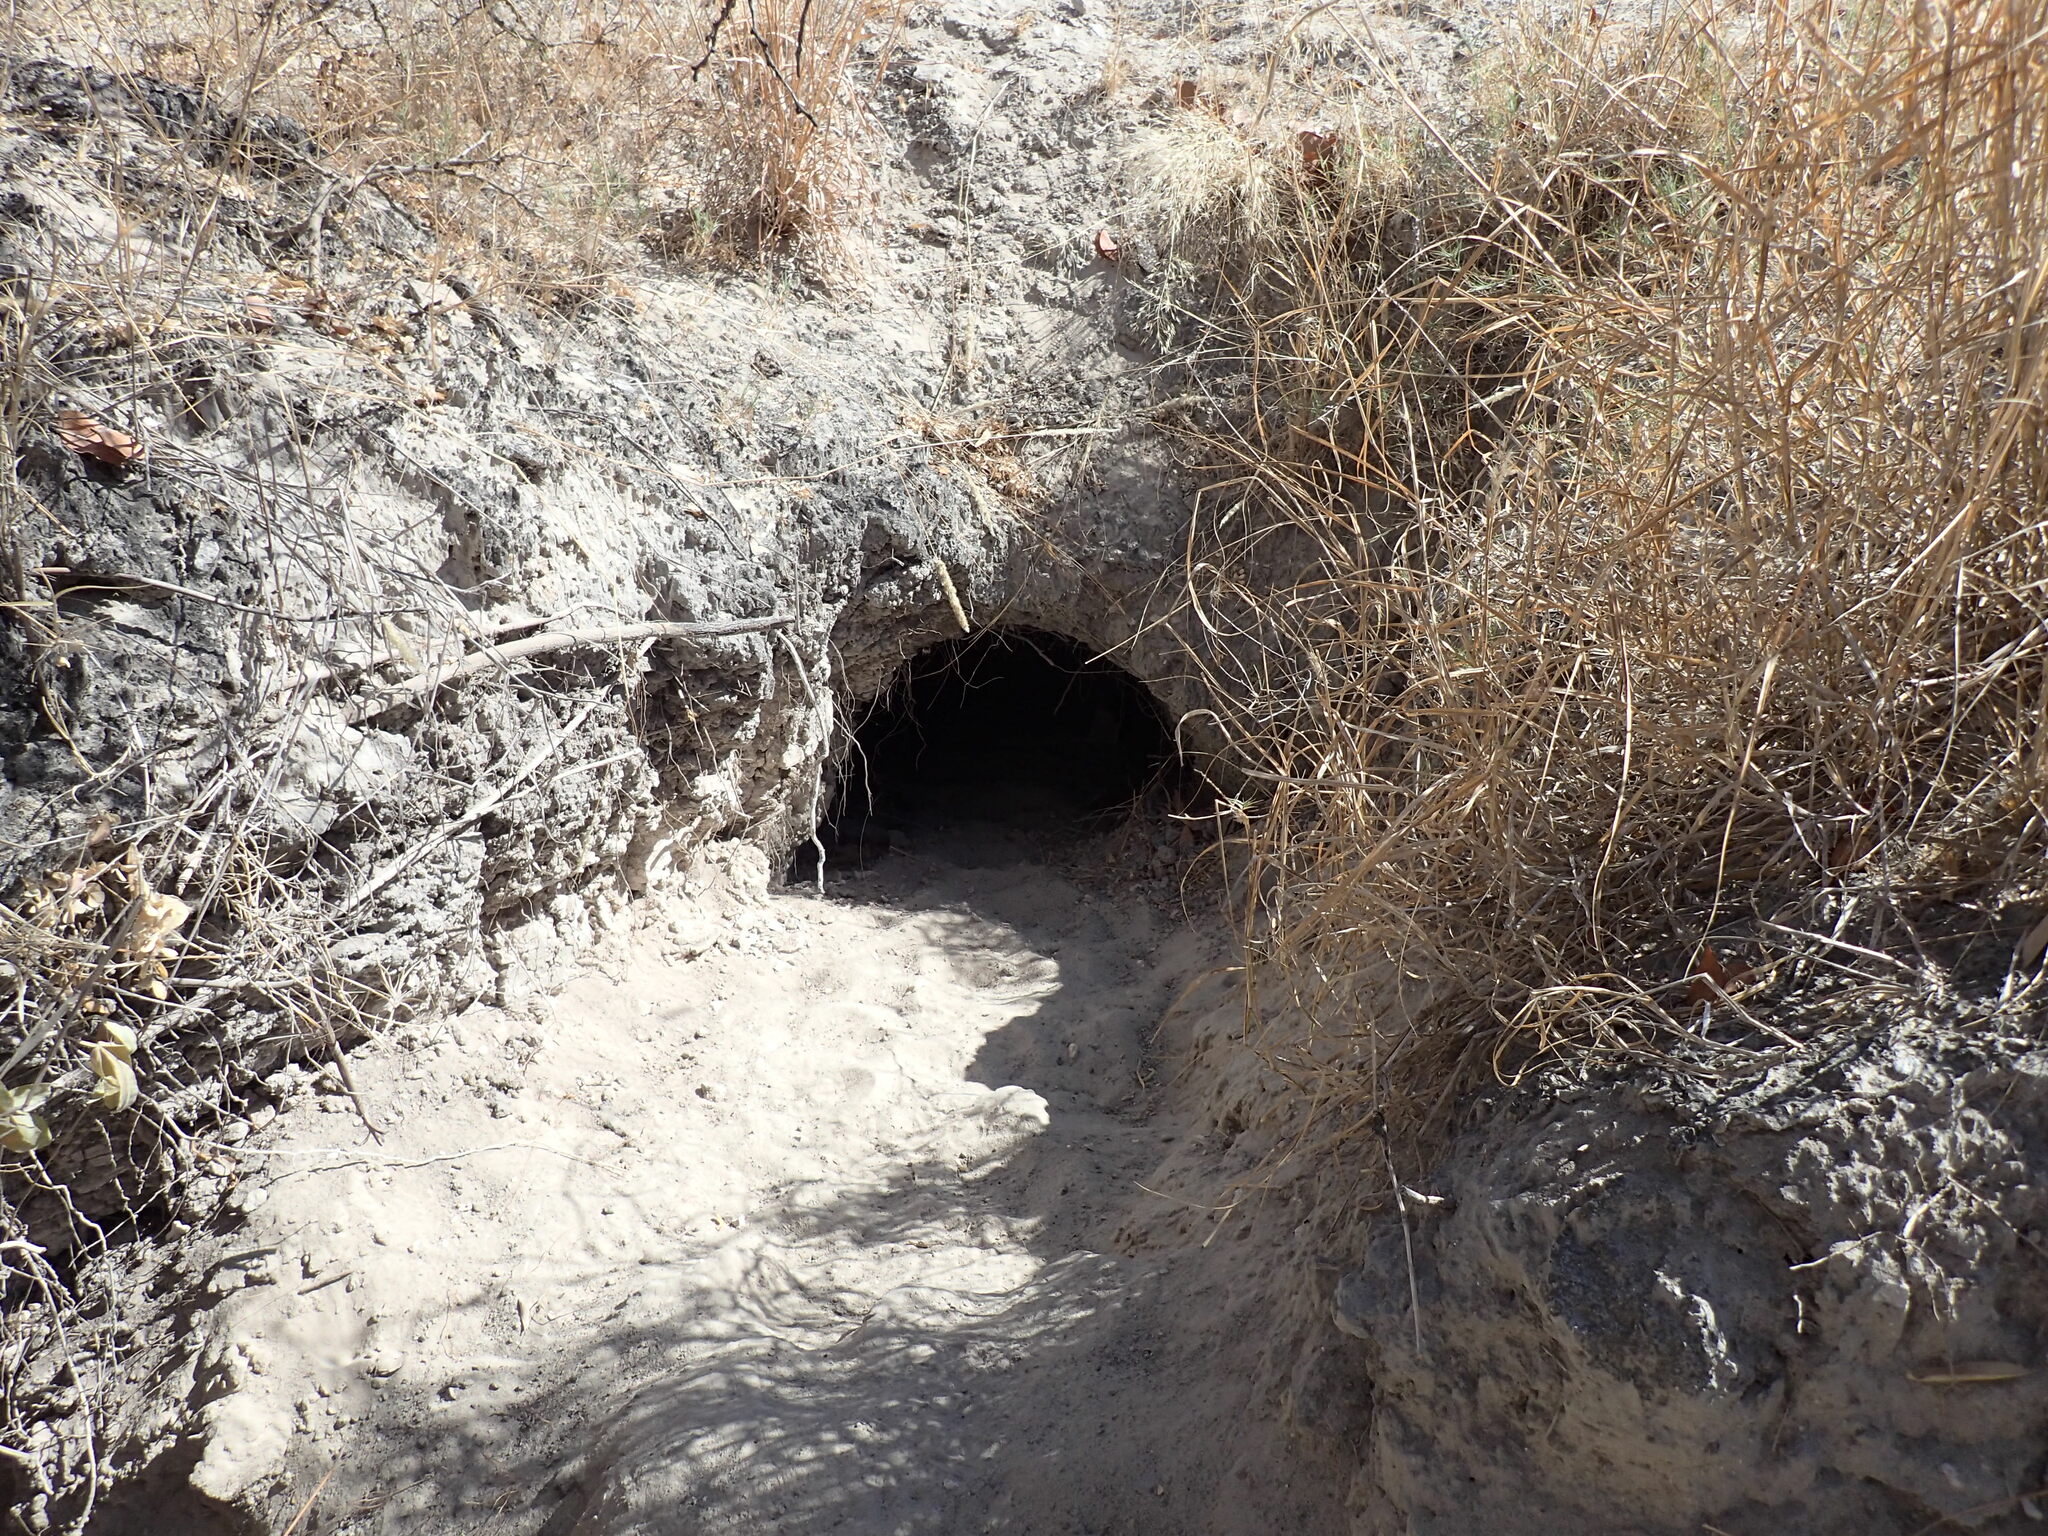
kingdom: Animalia
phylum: Chordata
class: Mammalia
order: Rodentia
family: Hystricidae
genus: Hystrix
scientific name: Hystrix africaeaustralis
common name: Cape porcupine
